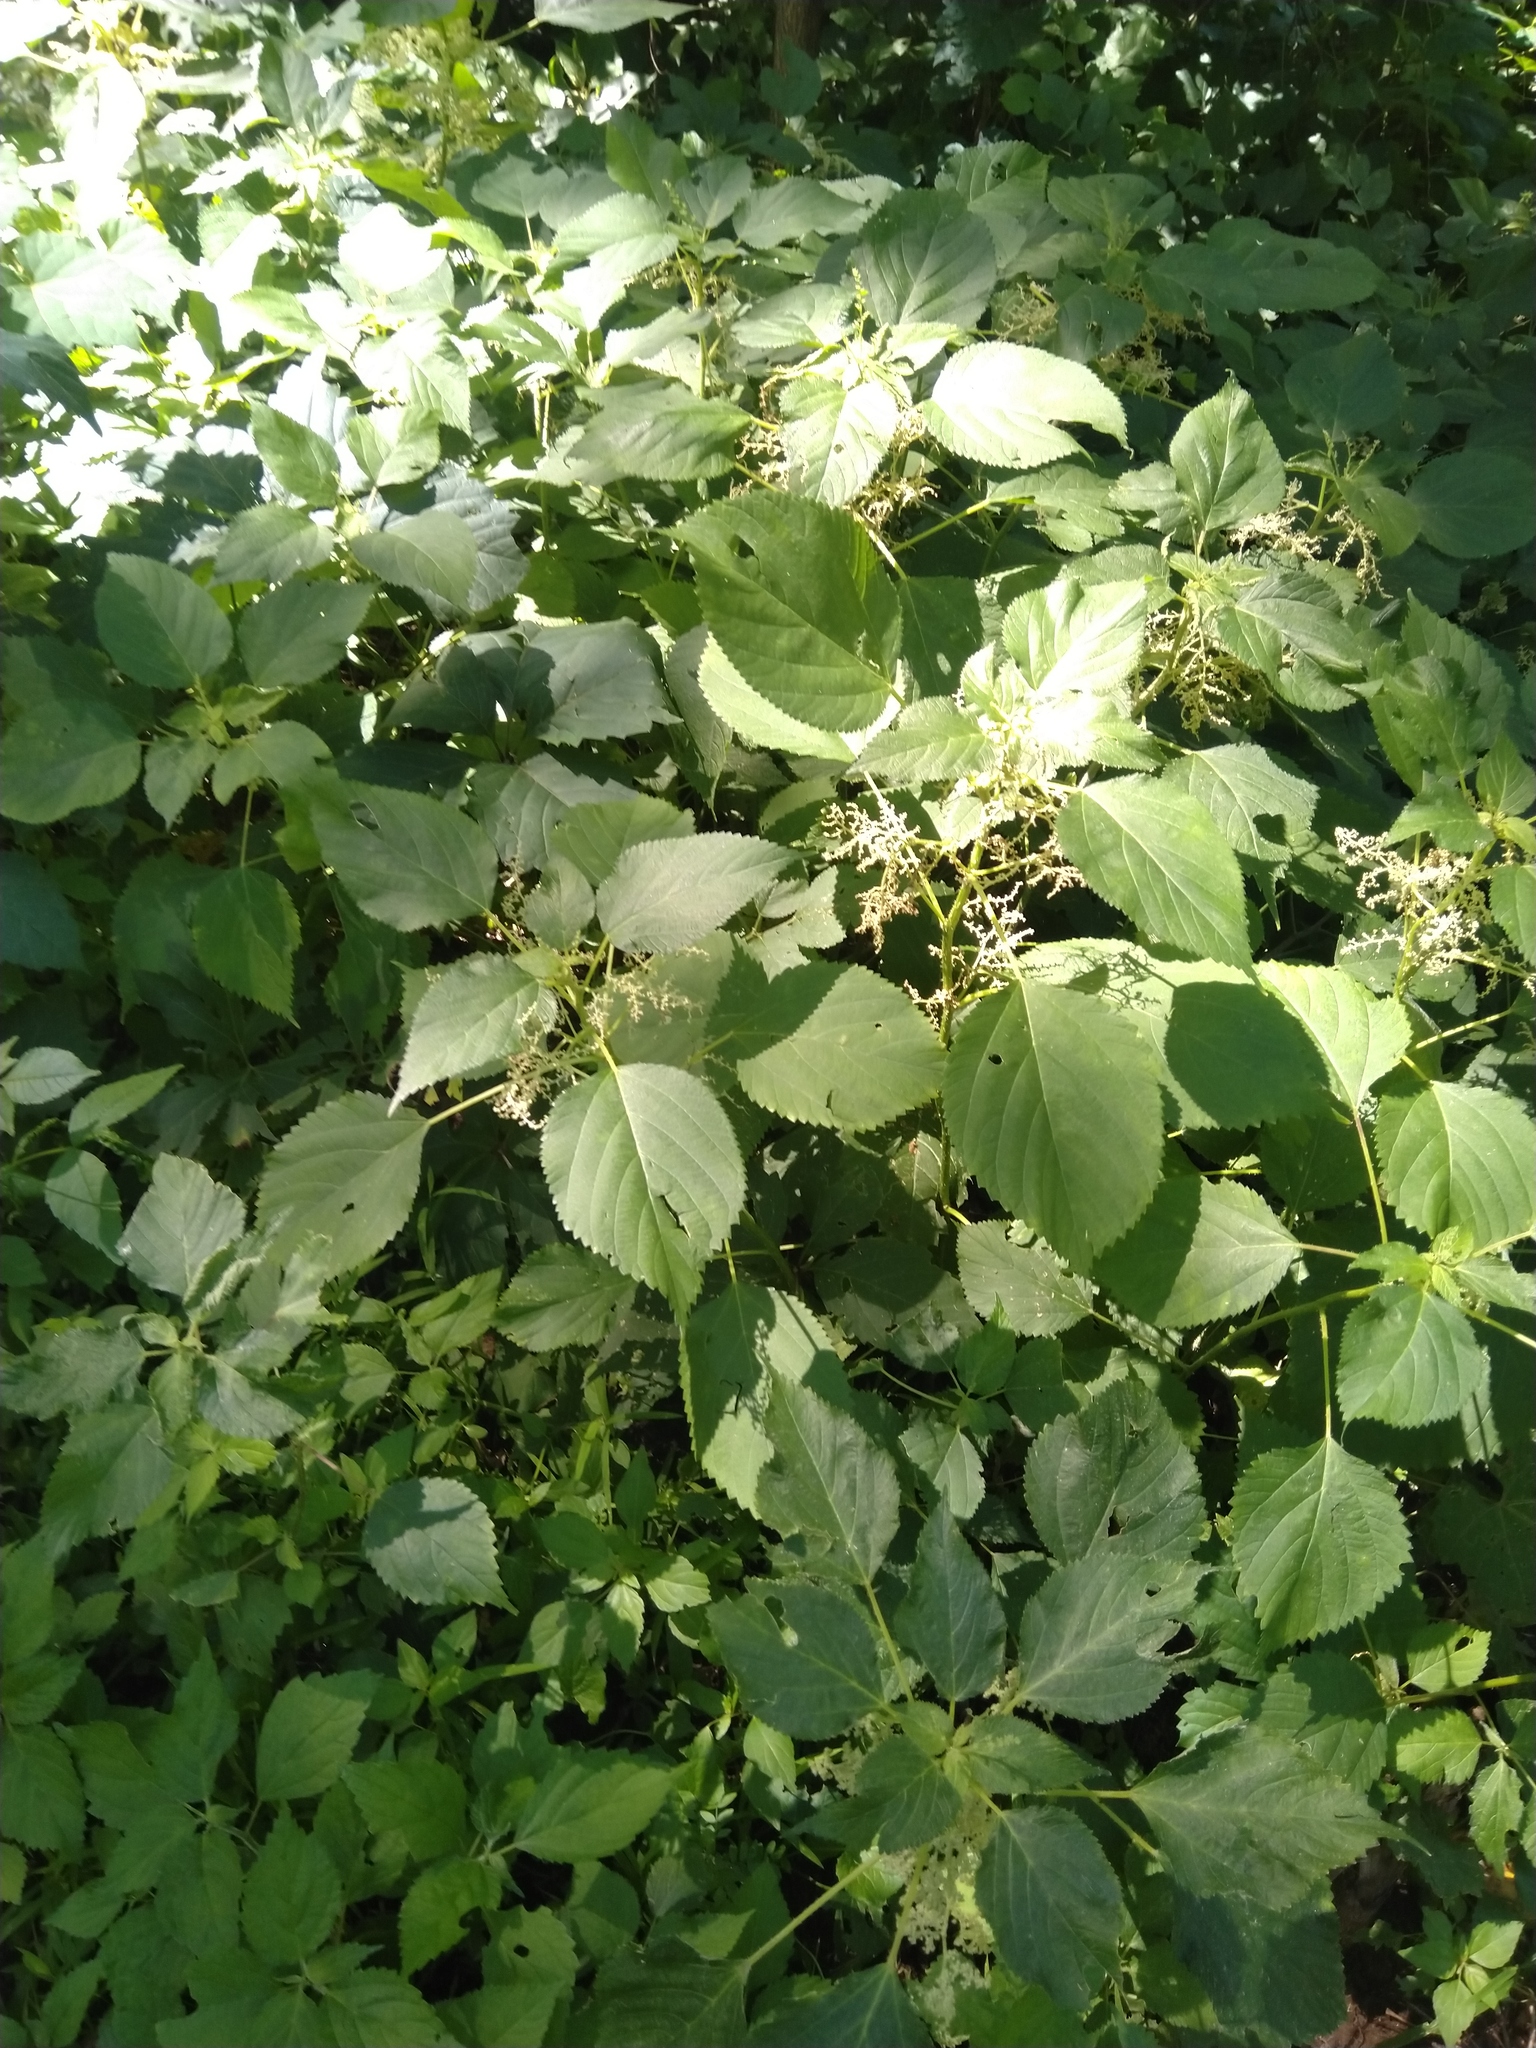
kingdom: Plantae
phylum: Tracheophyta
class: Magnoliopsida
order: Rosales
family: Urticaceae
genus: Laportea
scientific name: Laportea canadensis
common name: Canada nettle
